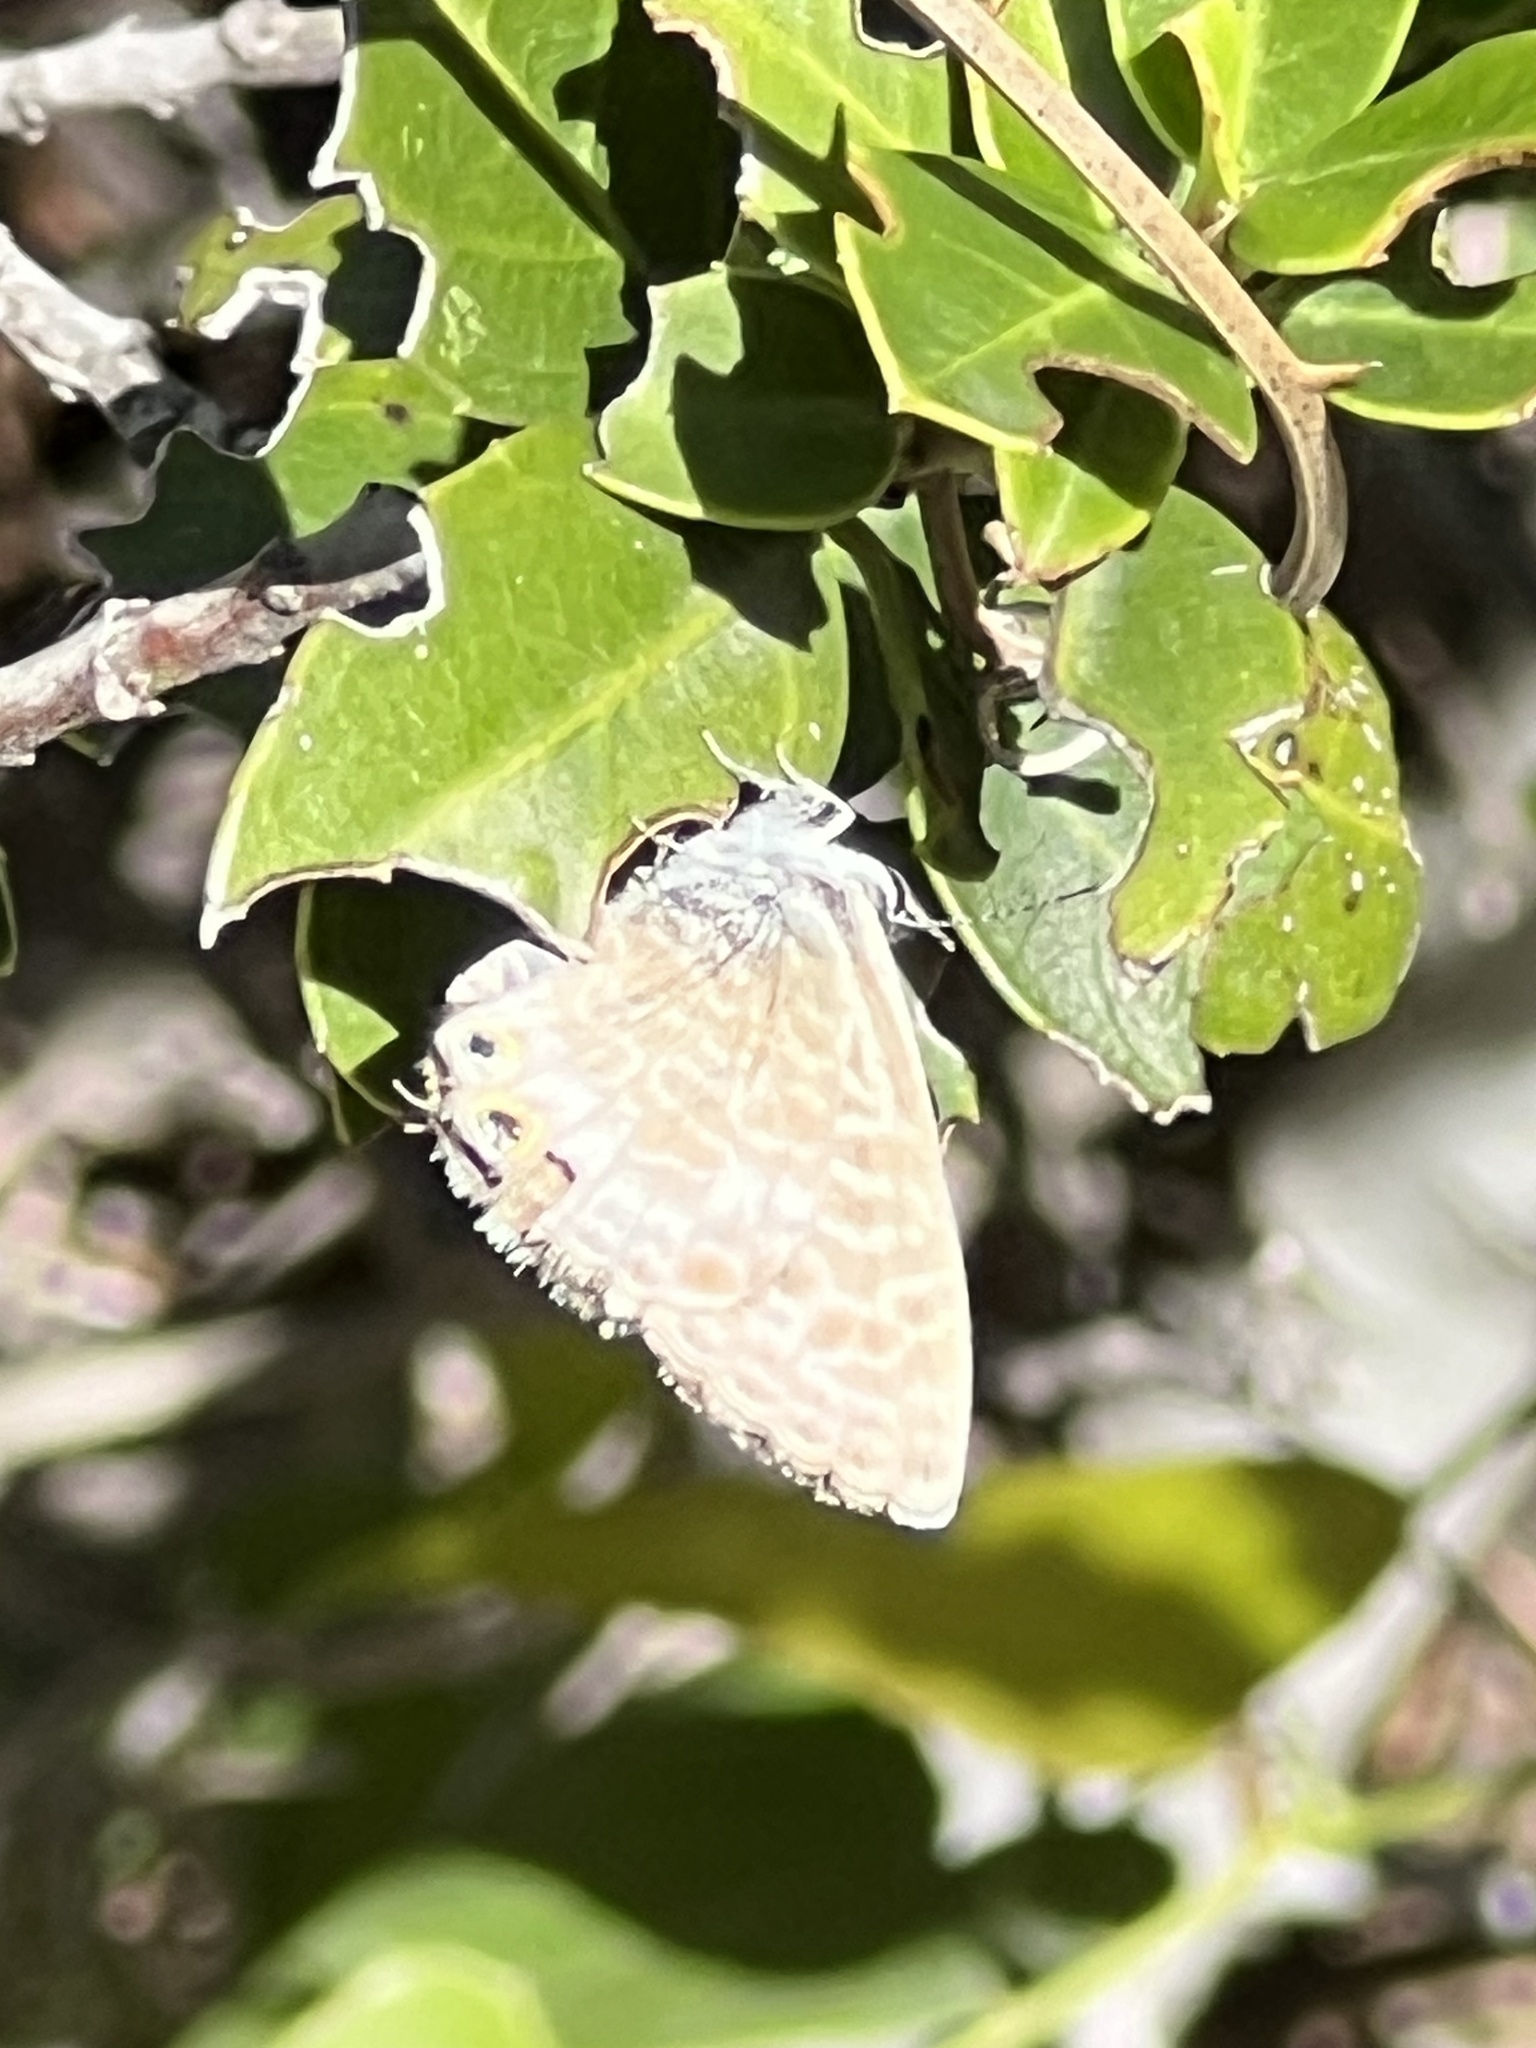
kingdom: Animalia
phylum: Arthropoda
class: Insecta
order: Lepidoptera
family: Lycaenidae
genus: Leptotes
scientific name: Leptotes pirithous
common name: Lang's short-tailed blue
